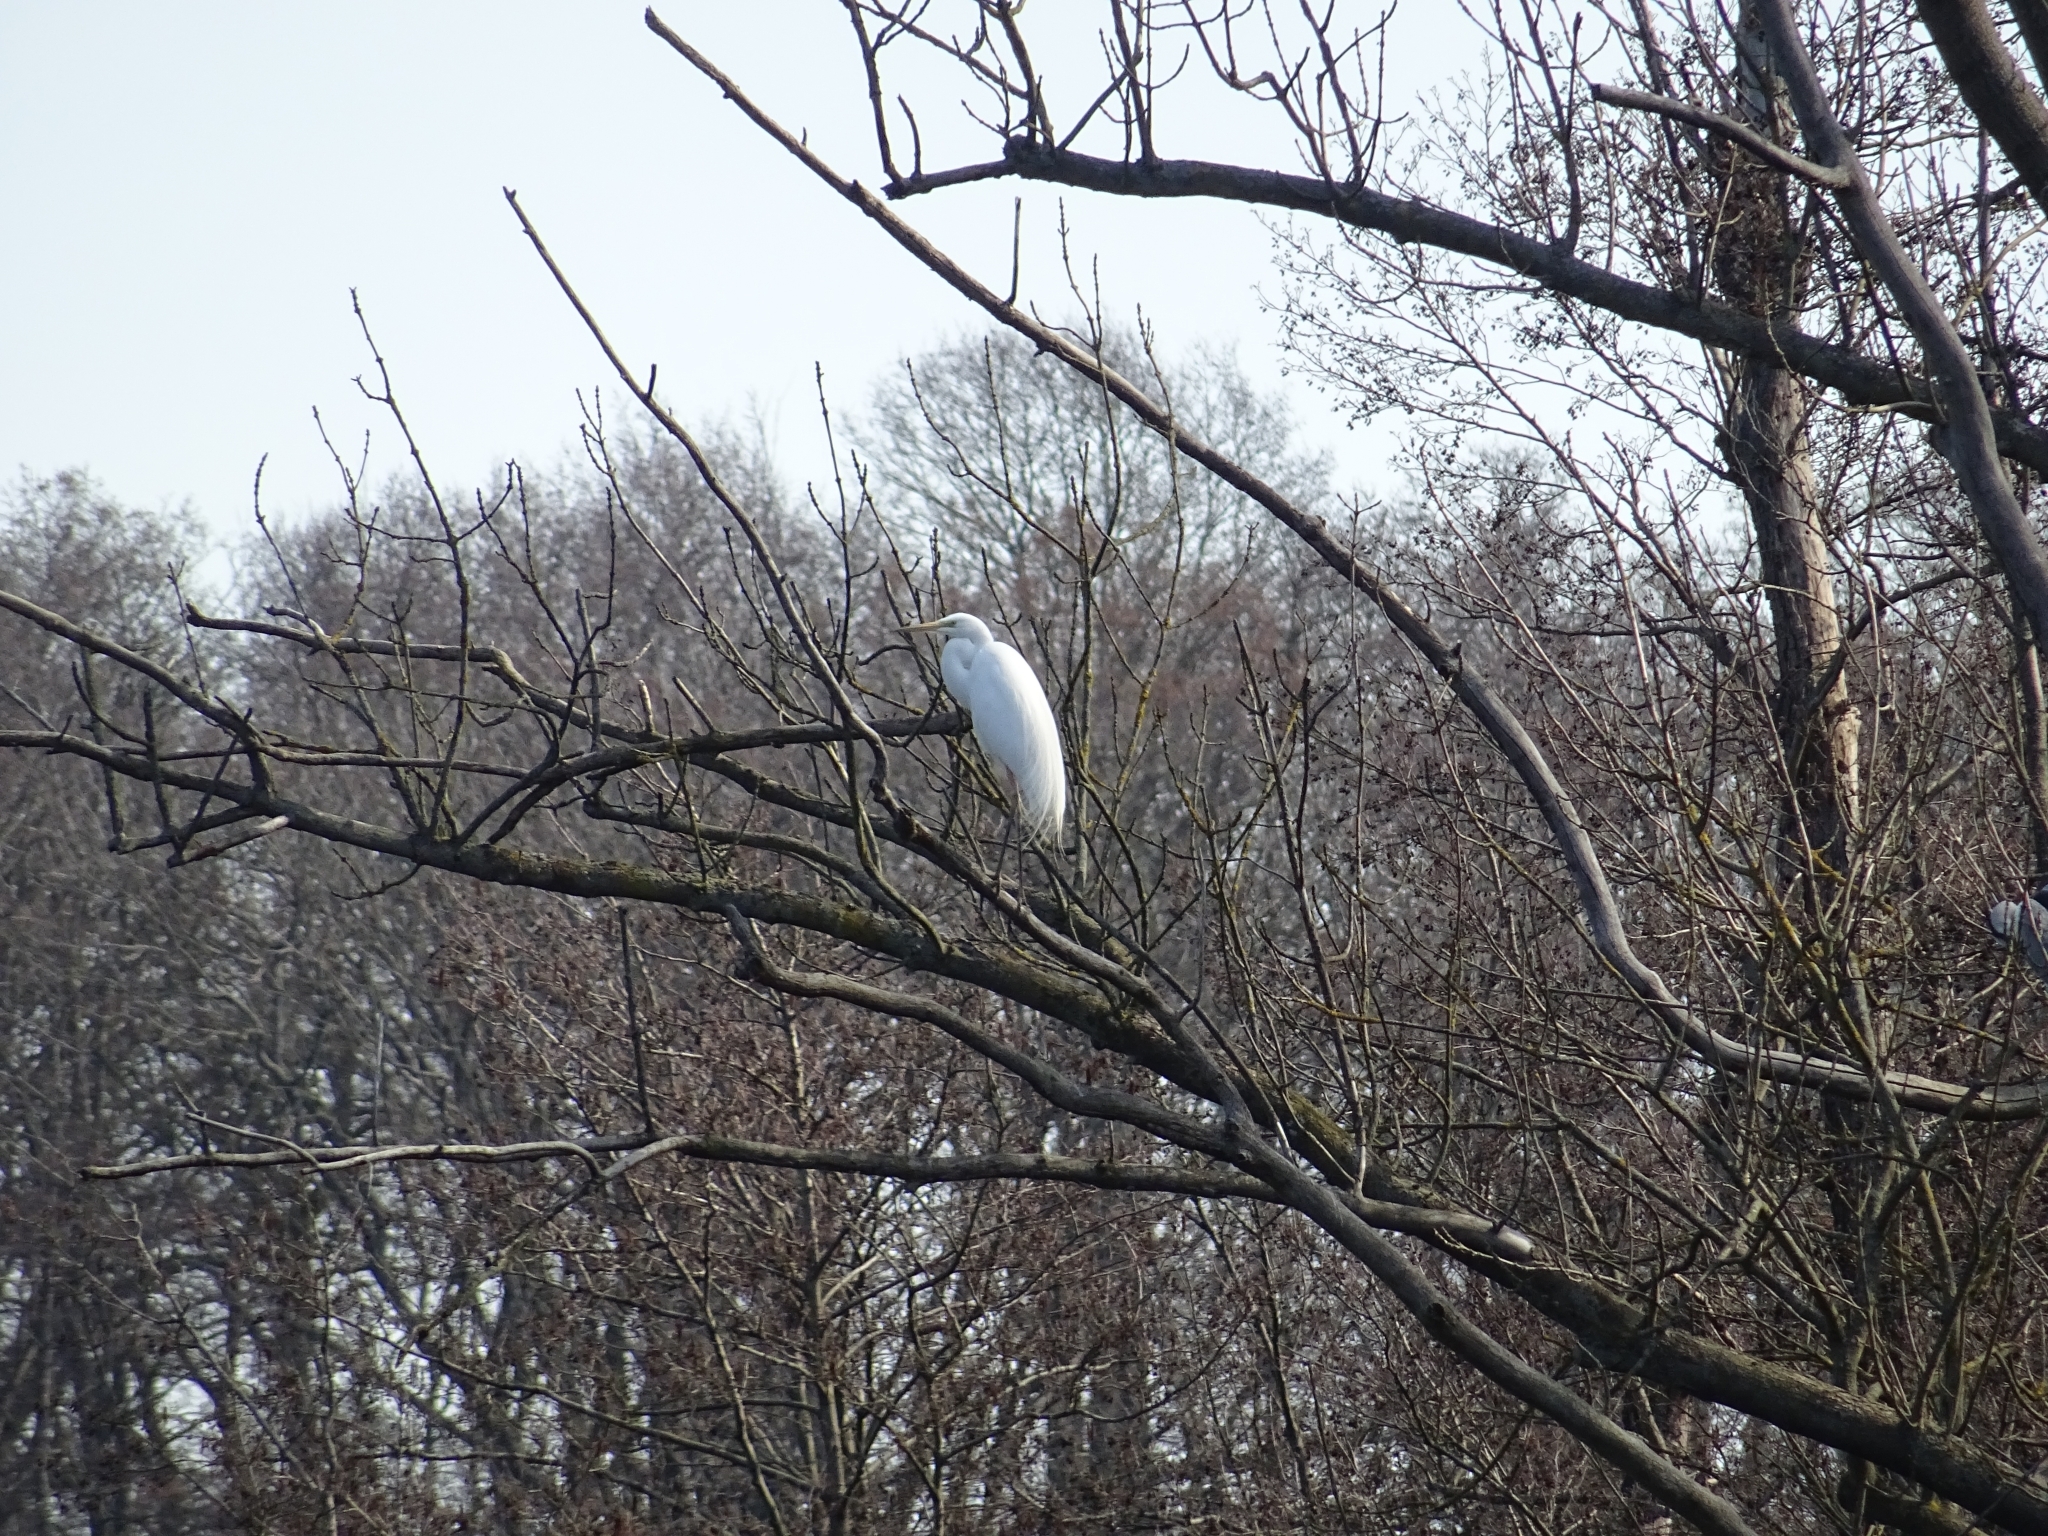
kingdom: Animalia
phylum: Chordata
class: Aves
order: Pelecaniformes
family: Ardeidae
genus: Ardea
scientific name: Ardea alba
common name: Great egret
